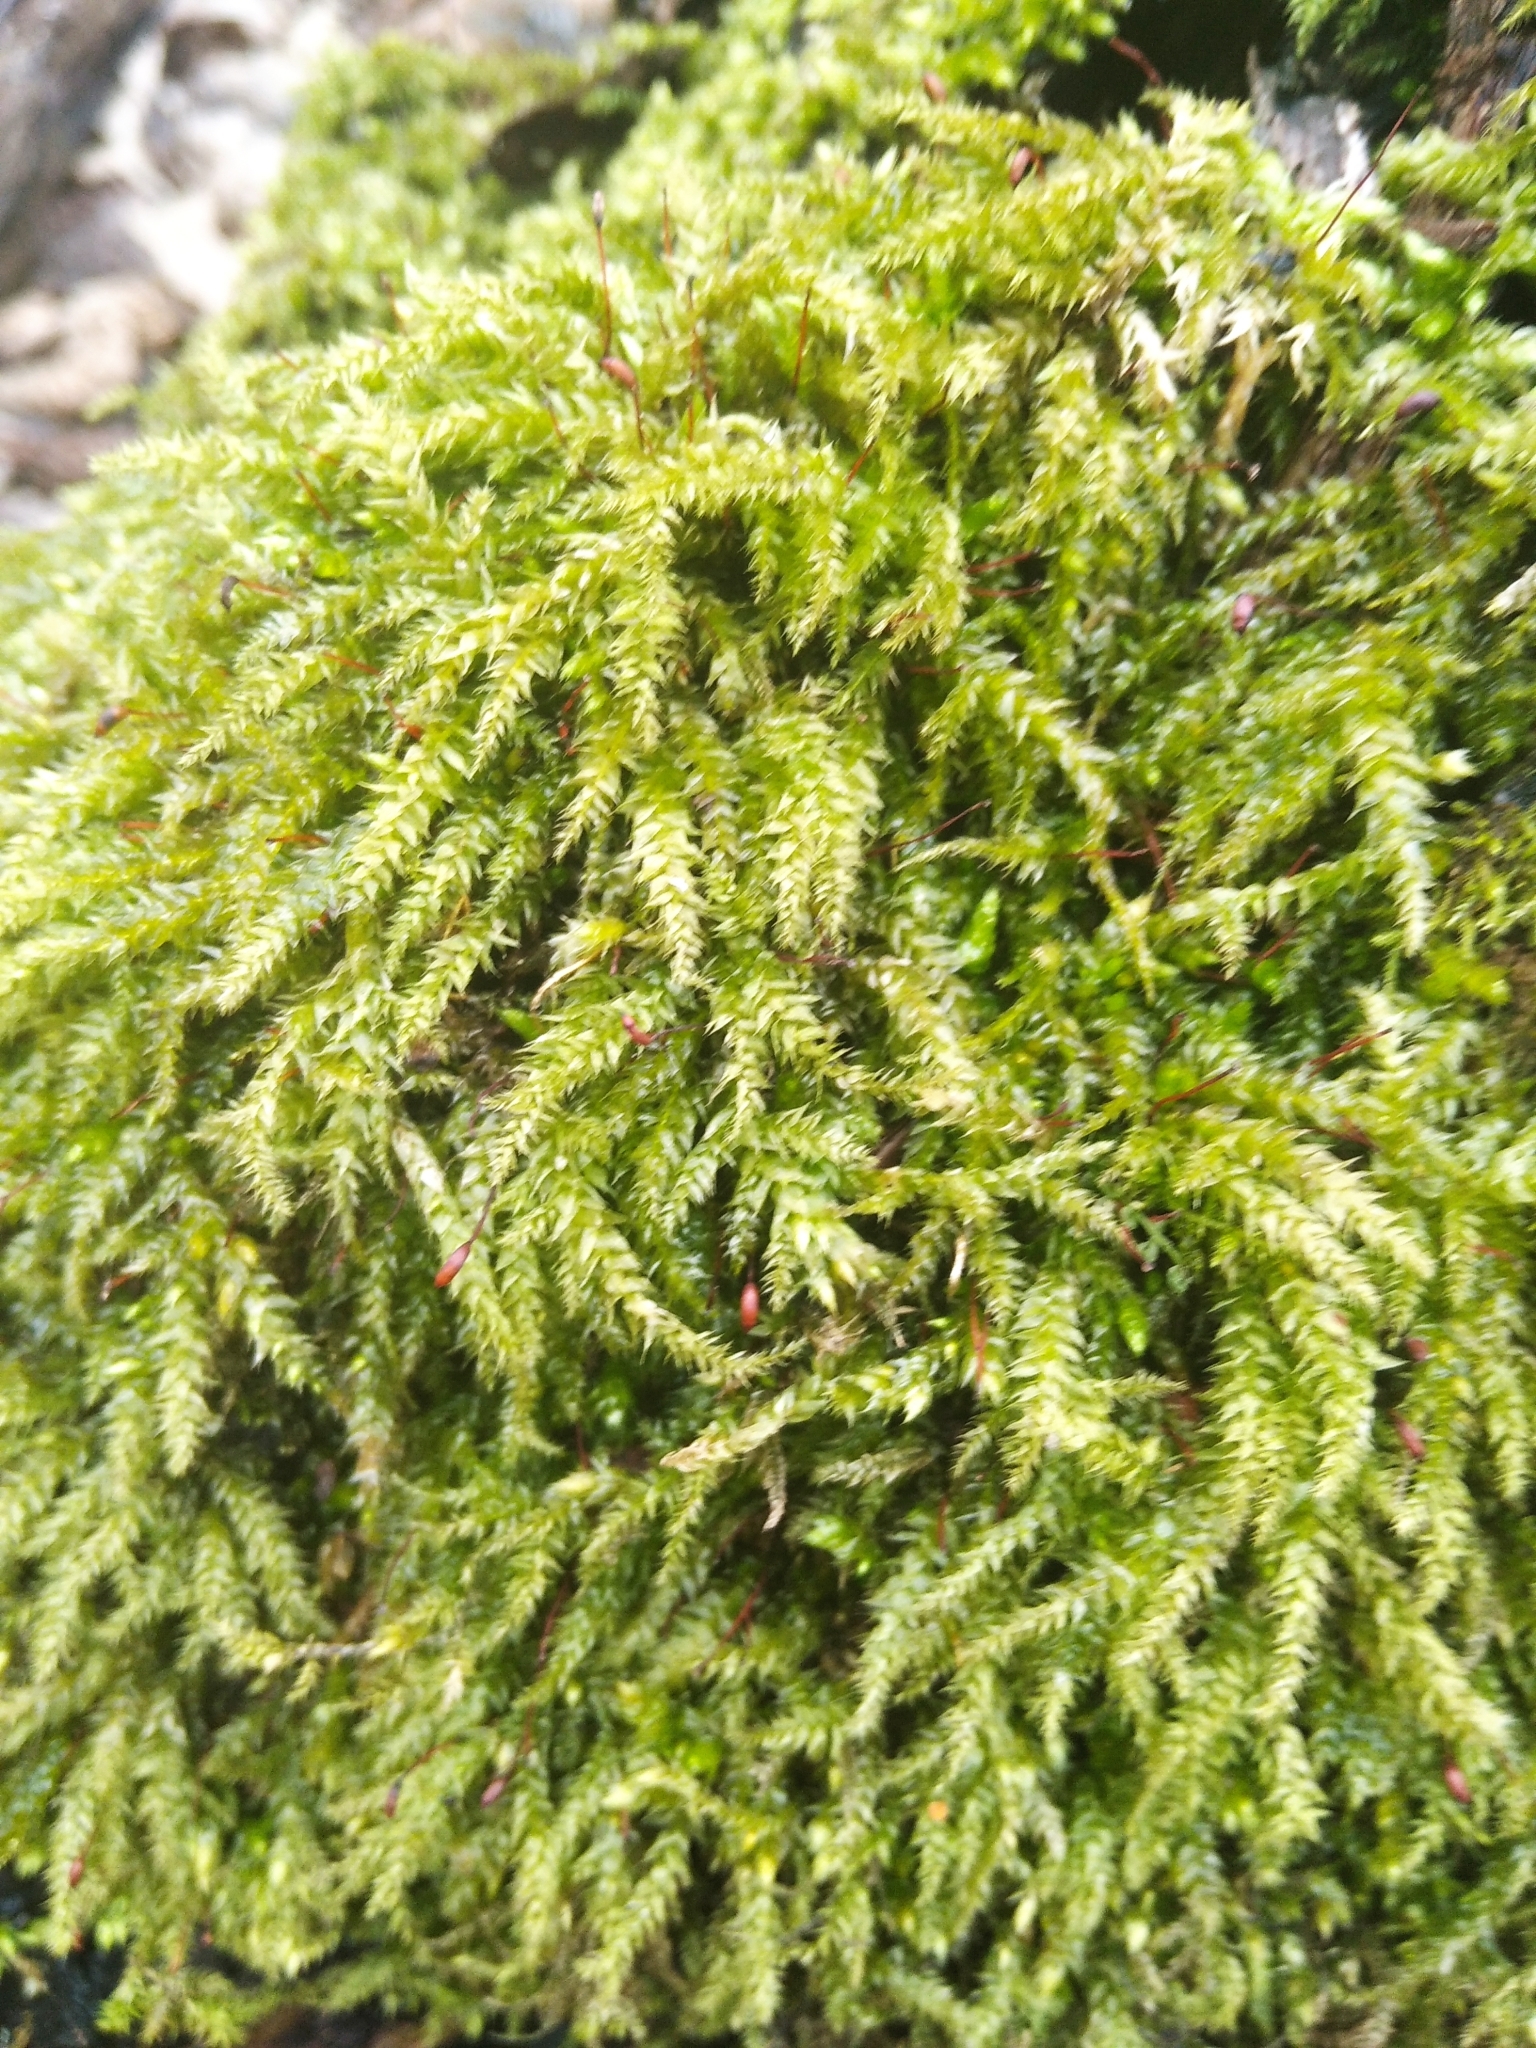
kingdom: Plantae
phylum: Bryophyta
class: Bryopsida
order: Hypnales
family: Brachytheciaceae
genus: Brachythecium
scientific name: Brachythecium rutabulum
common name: Rough-stalked feather-moss
